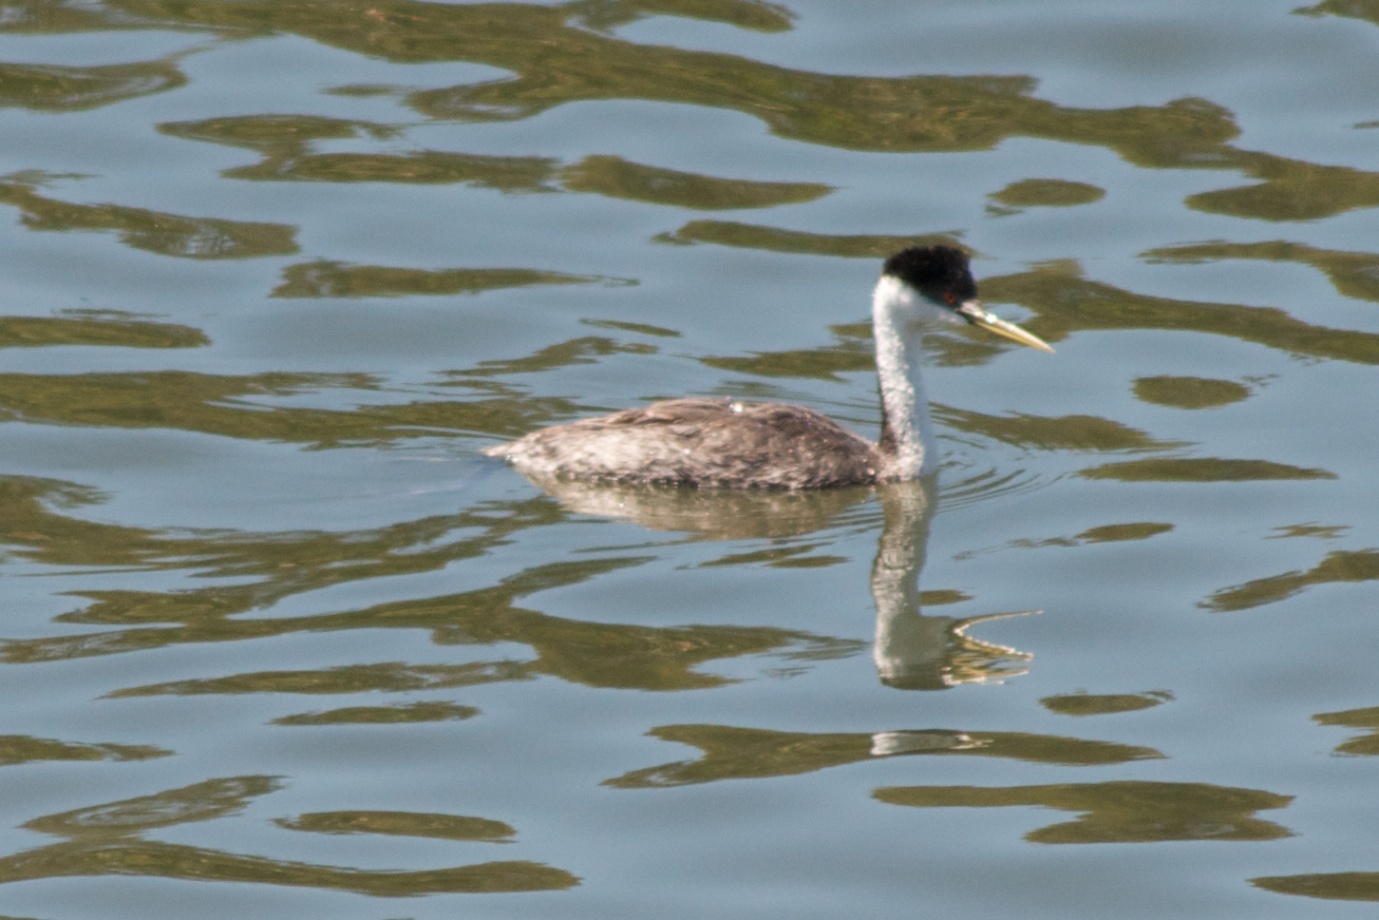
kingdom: Animalia
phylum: Chordata
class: Aves
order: Podicipediformes
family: Podicipedidae
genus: Aechmophorus
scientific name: Aechmophorus occidentalis
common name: Western grebe
